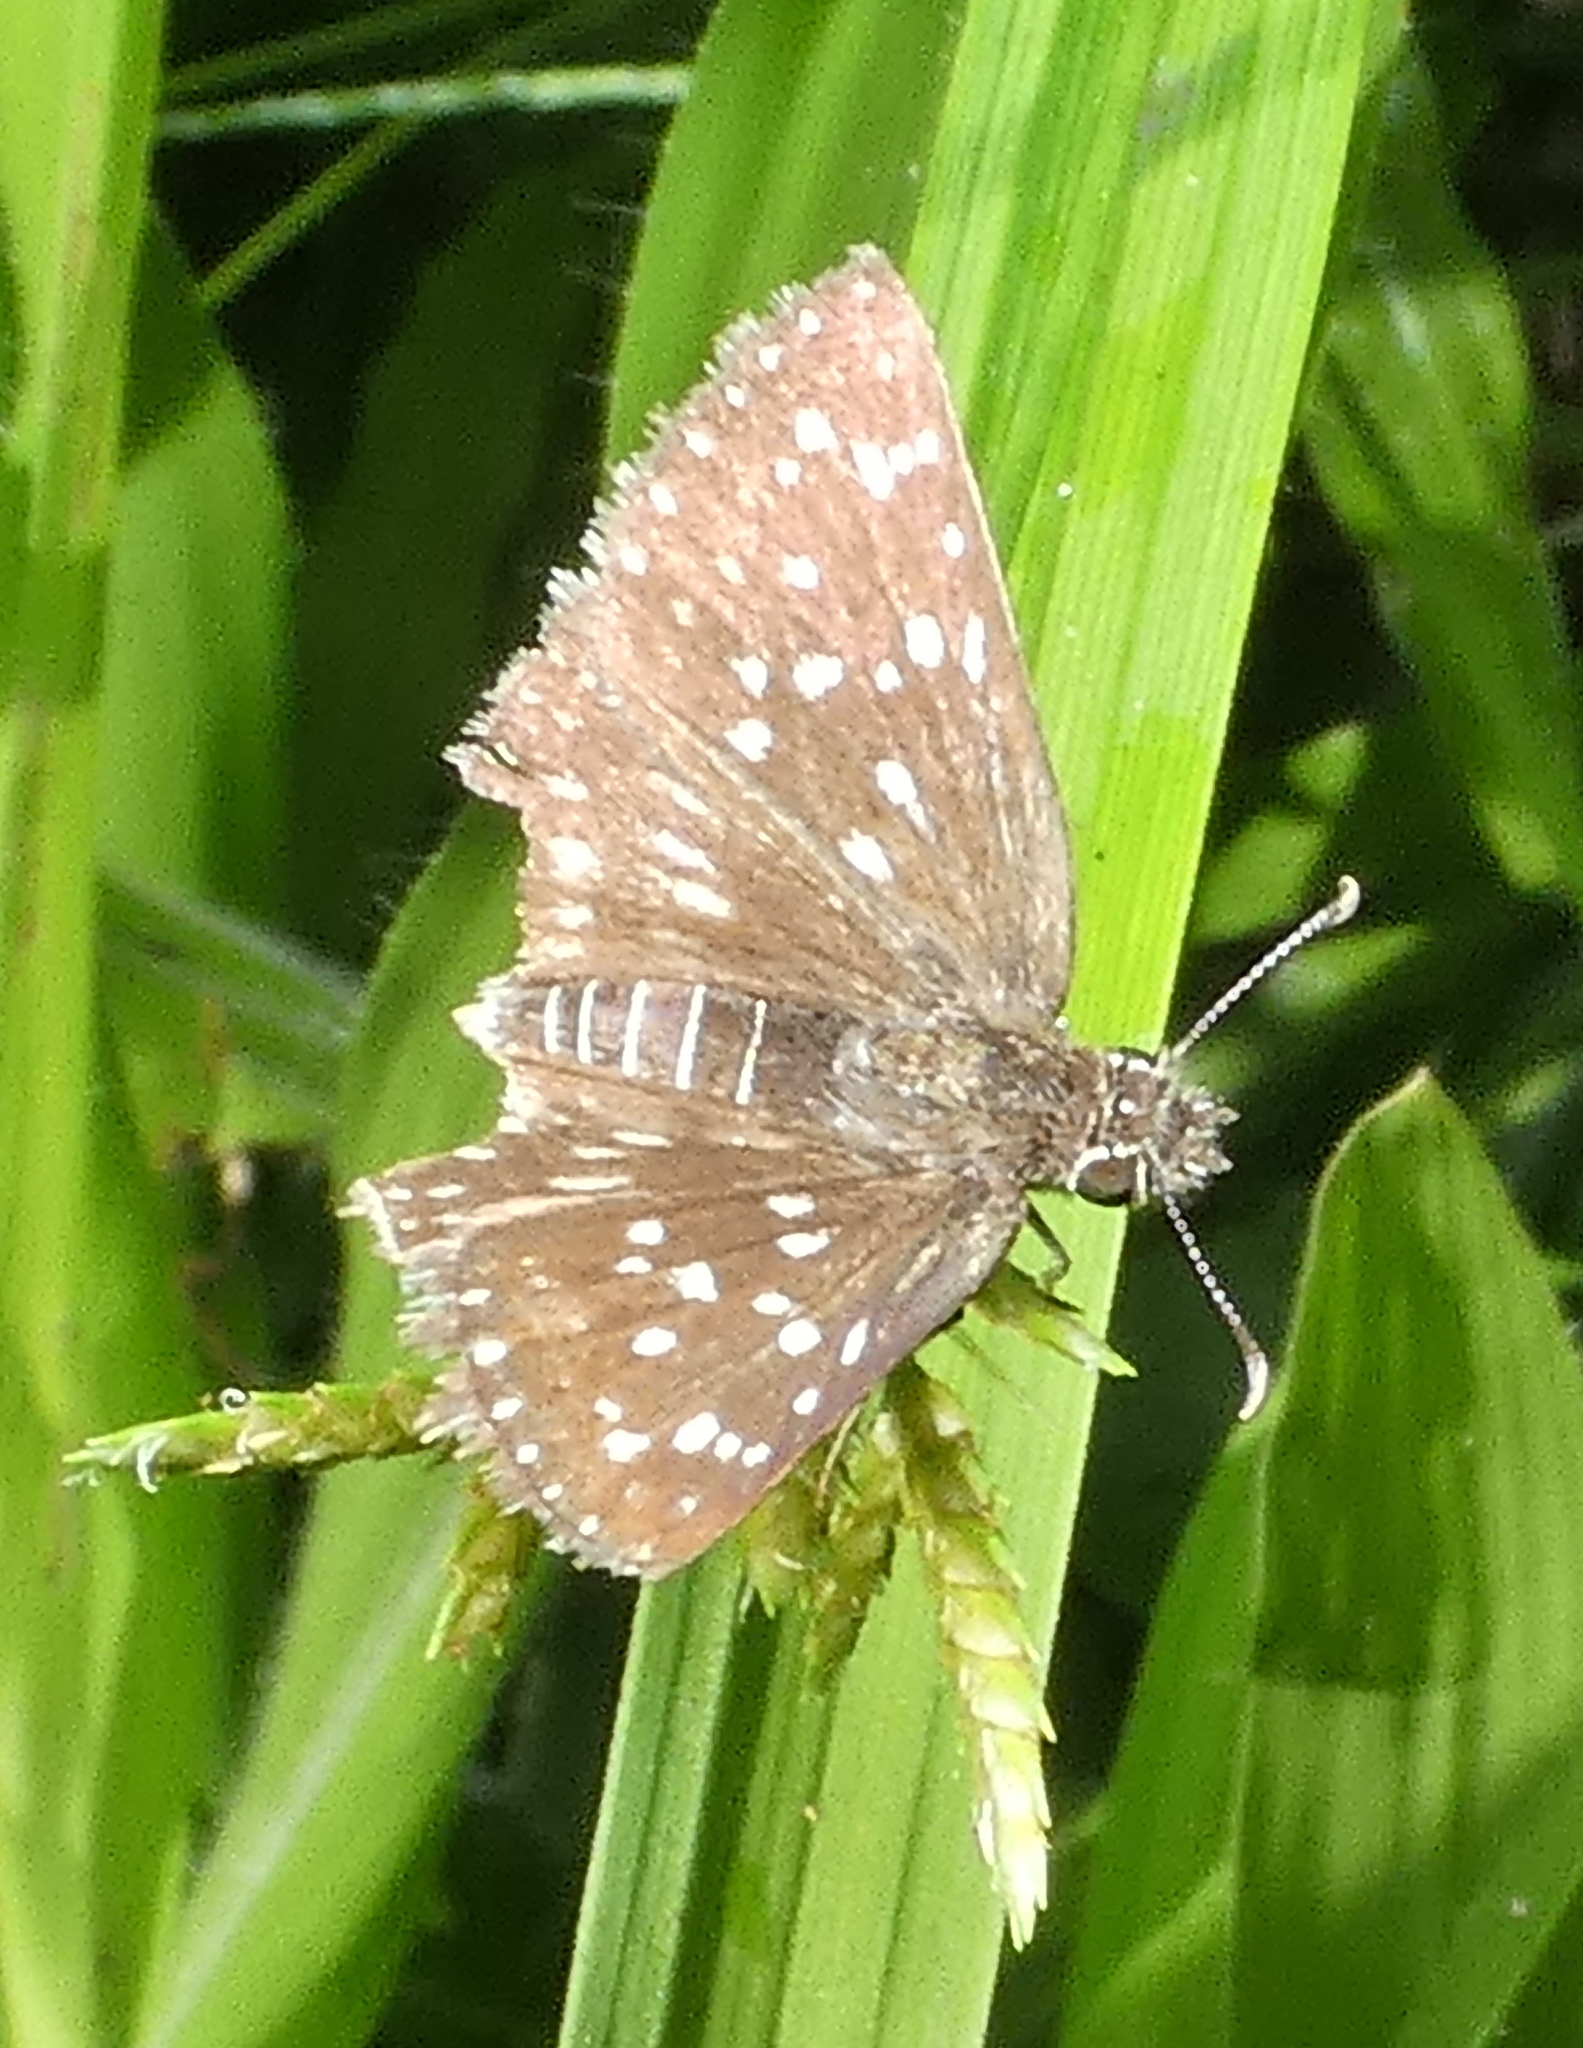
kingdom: Animalia
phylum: Arthropoda
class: Insecta
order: Lepidoptera
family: Hesperiidae
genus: Chirgus
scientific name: Chirgus
